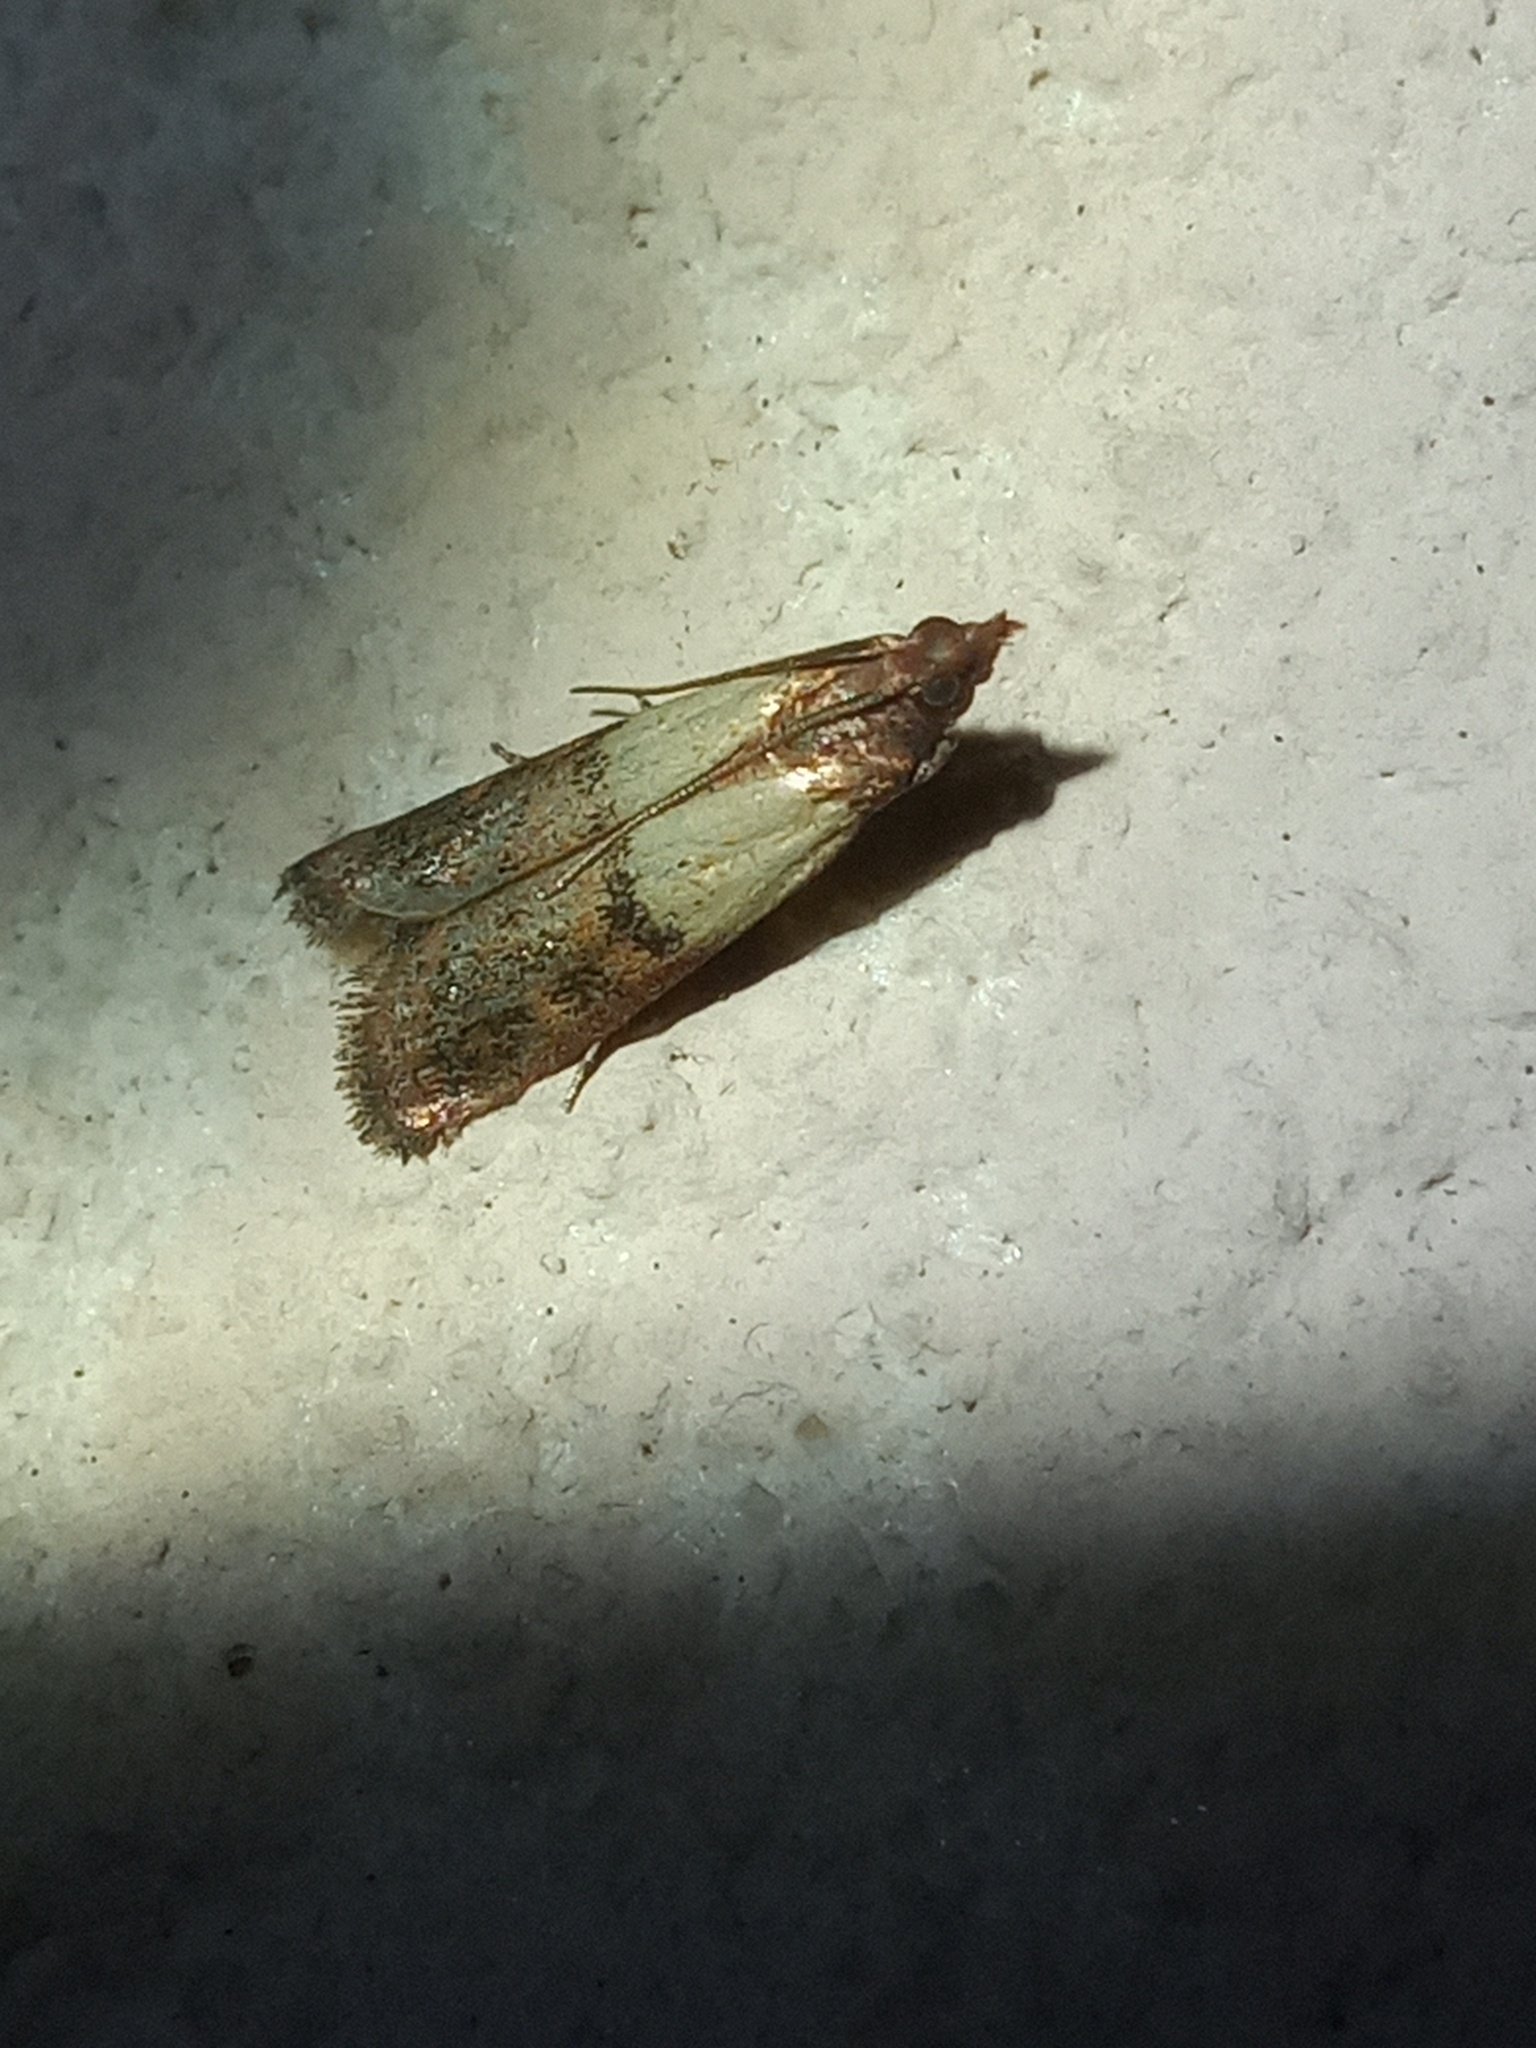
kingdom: Animalia
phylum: Arthropoda
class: Insecta
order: Lepidoptera
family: Pyralidae
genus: Plodia
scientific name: Plodia interpunctella
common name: Indian meal moth
